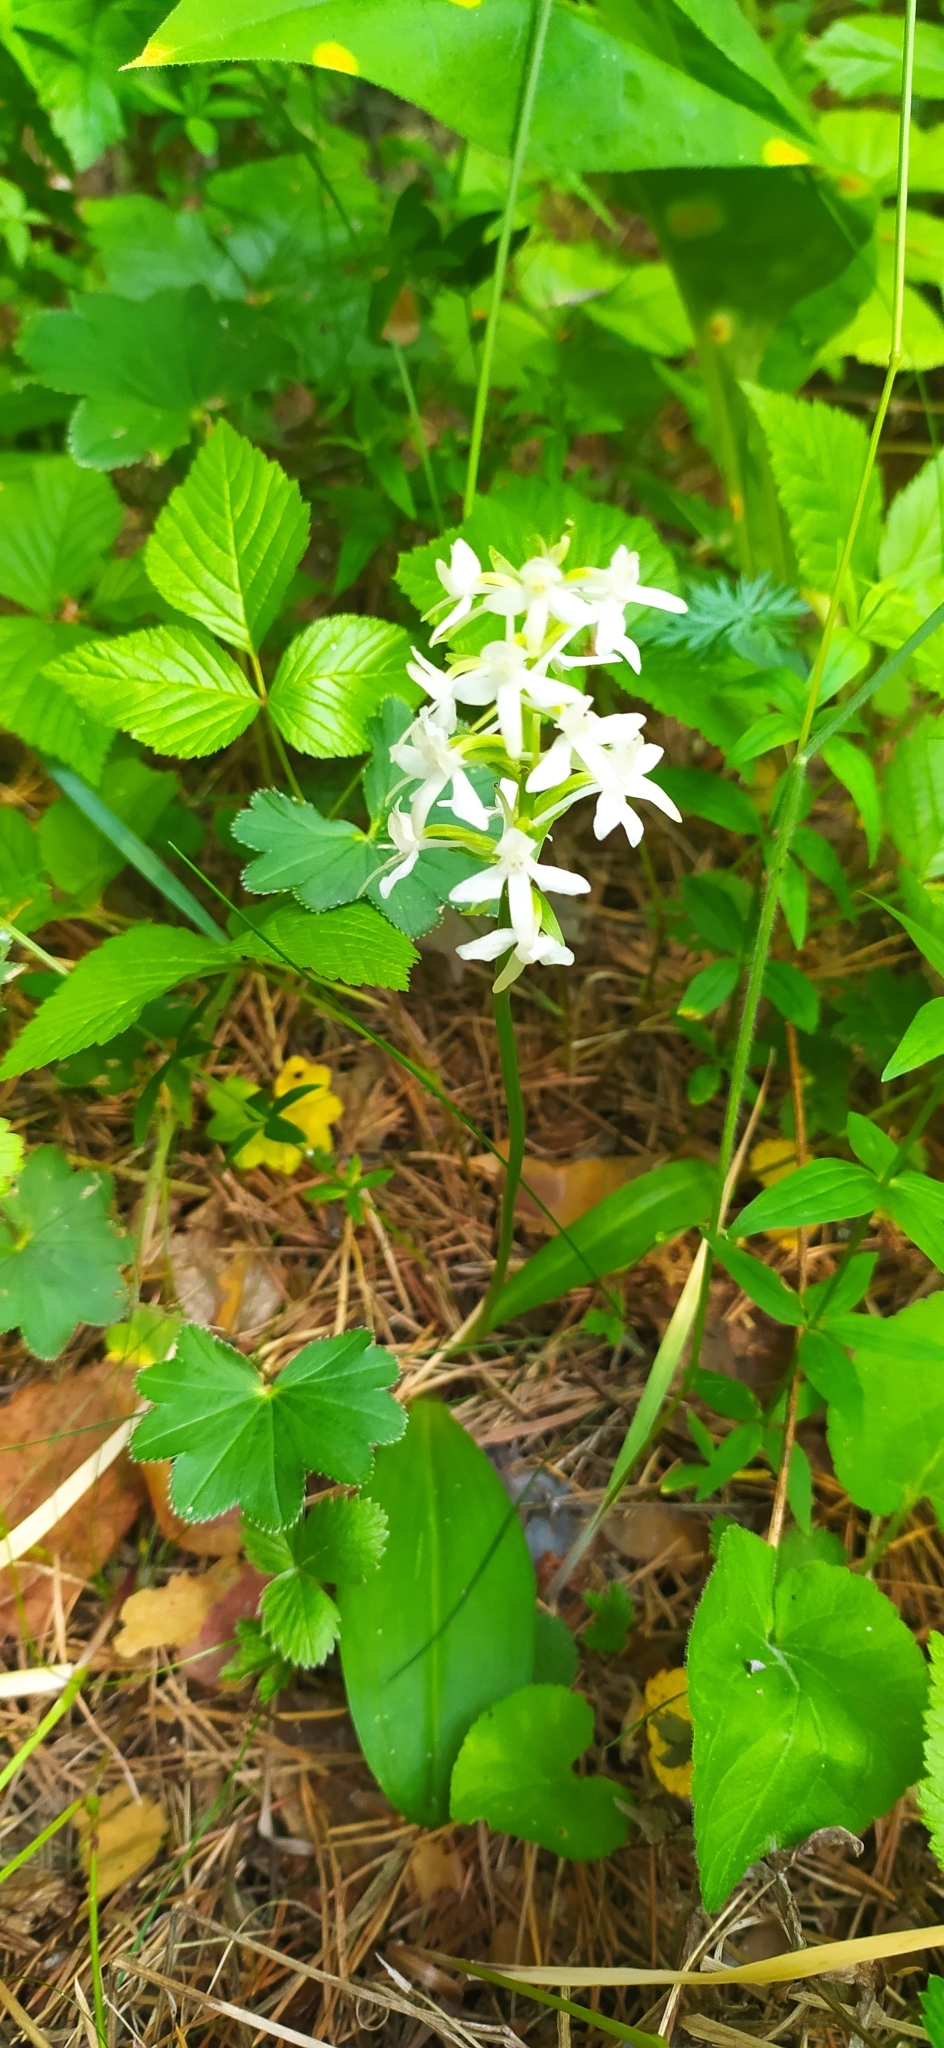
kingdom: Plantae
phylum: Tracheophyta
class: Liliopsida
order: Asparagales
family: Orchidaceae
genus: Platanthera
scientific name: Platanthera bifolia
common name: Lesser butterfly-orchid
